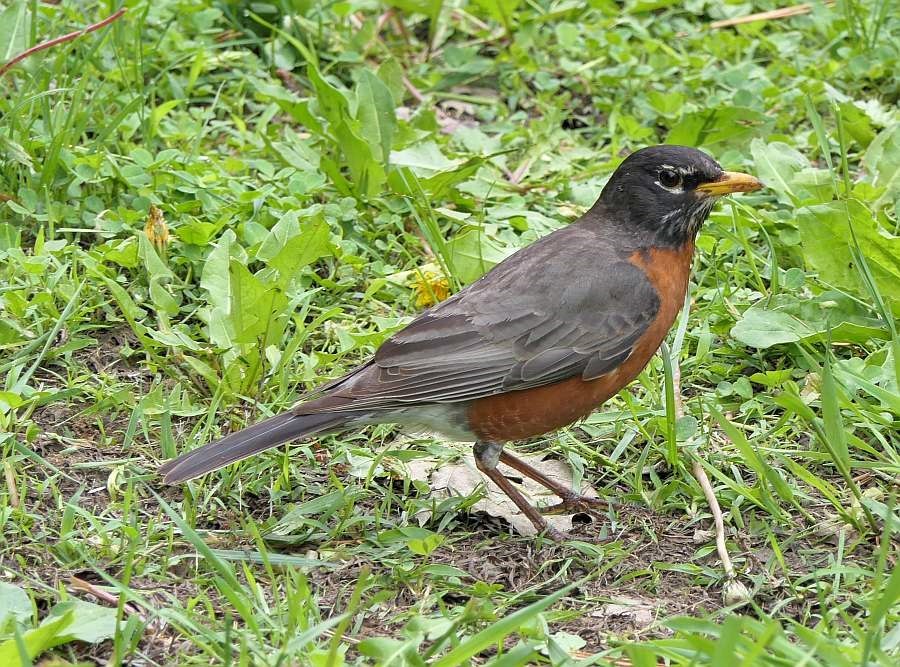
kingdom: Animalia
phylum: Chordata
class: Aves
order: Passeriformes
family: Turdidae
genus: Turdus
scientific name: Turdus migratorius
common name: American robin
